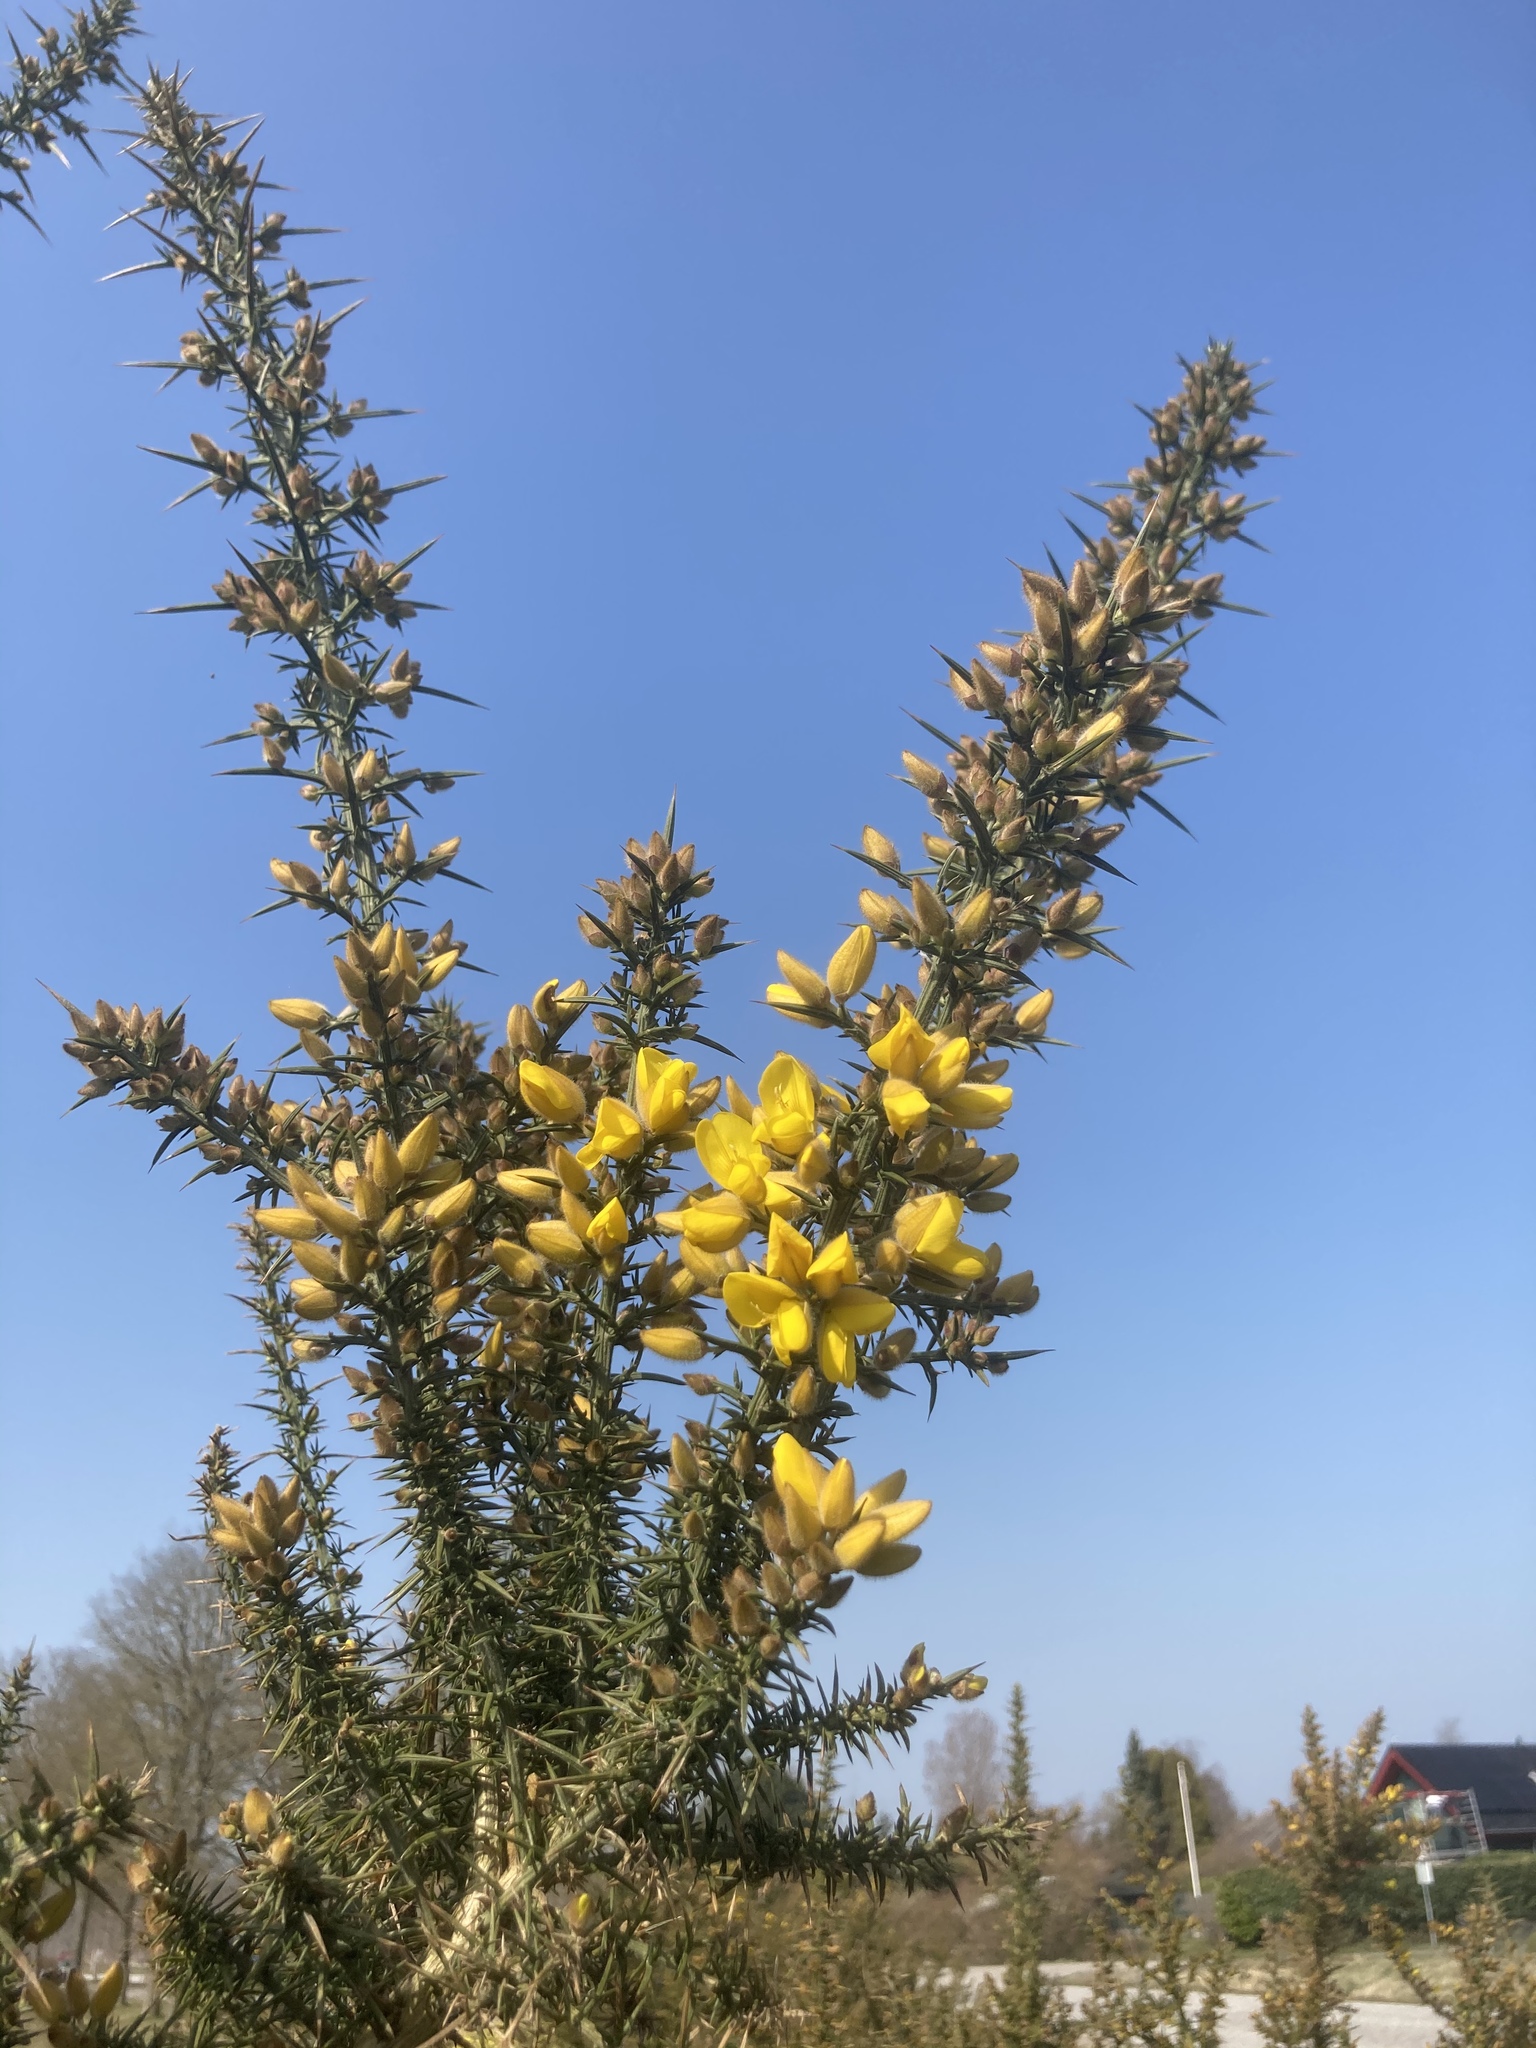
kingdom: Plantae
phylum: Tracheophyta
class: Magnoliopsida
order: Fabales
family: Fabaceae
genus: Ulex
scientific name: Ulex europaeus
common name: Common gorse
